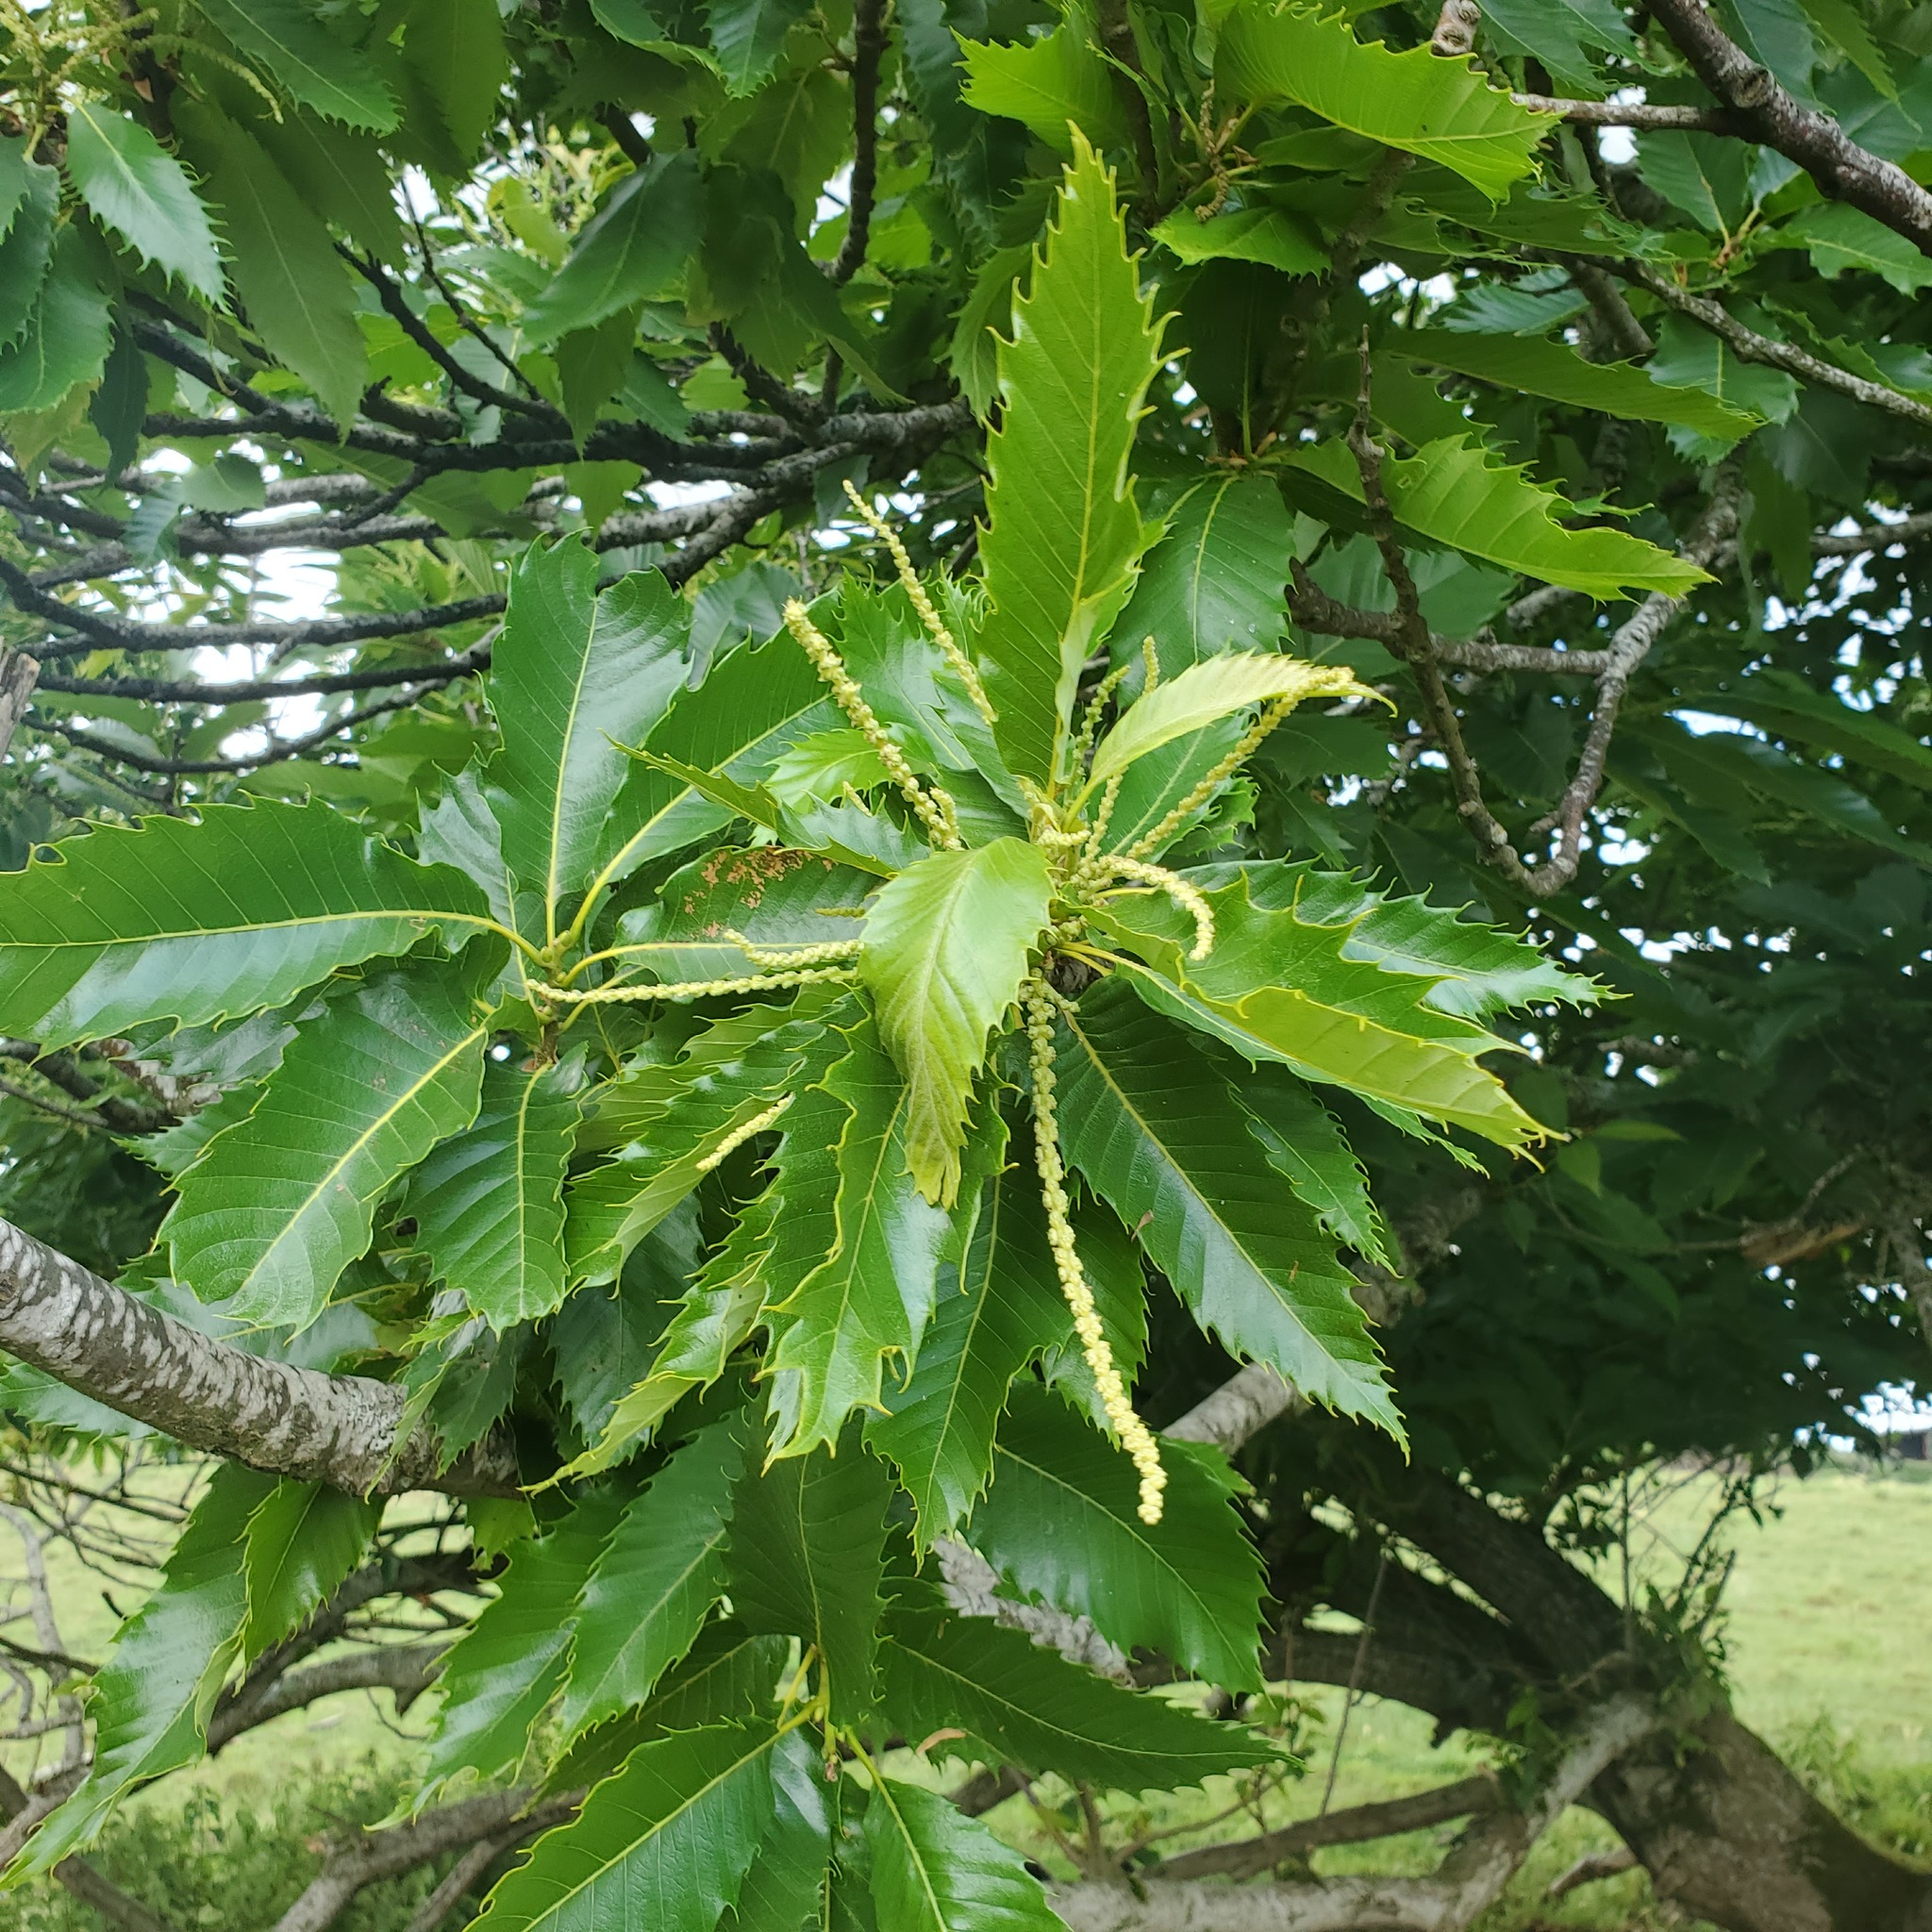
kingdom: Plantae
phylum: Tracheophyta
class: Magnoliopsida
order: Fagales
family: Fagaceae
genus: Castanea
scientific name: Castanea sativa
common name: Sweet chestnut
